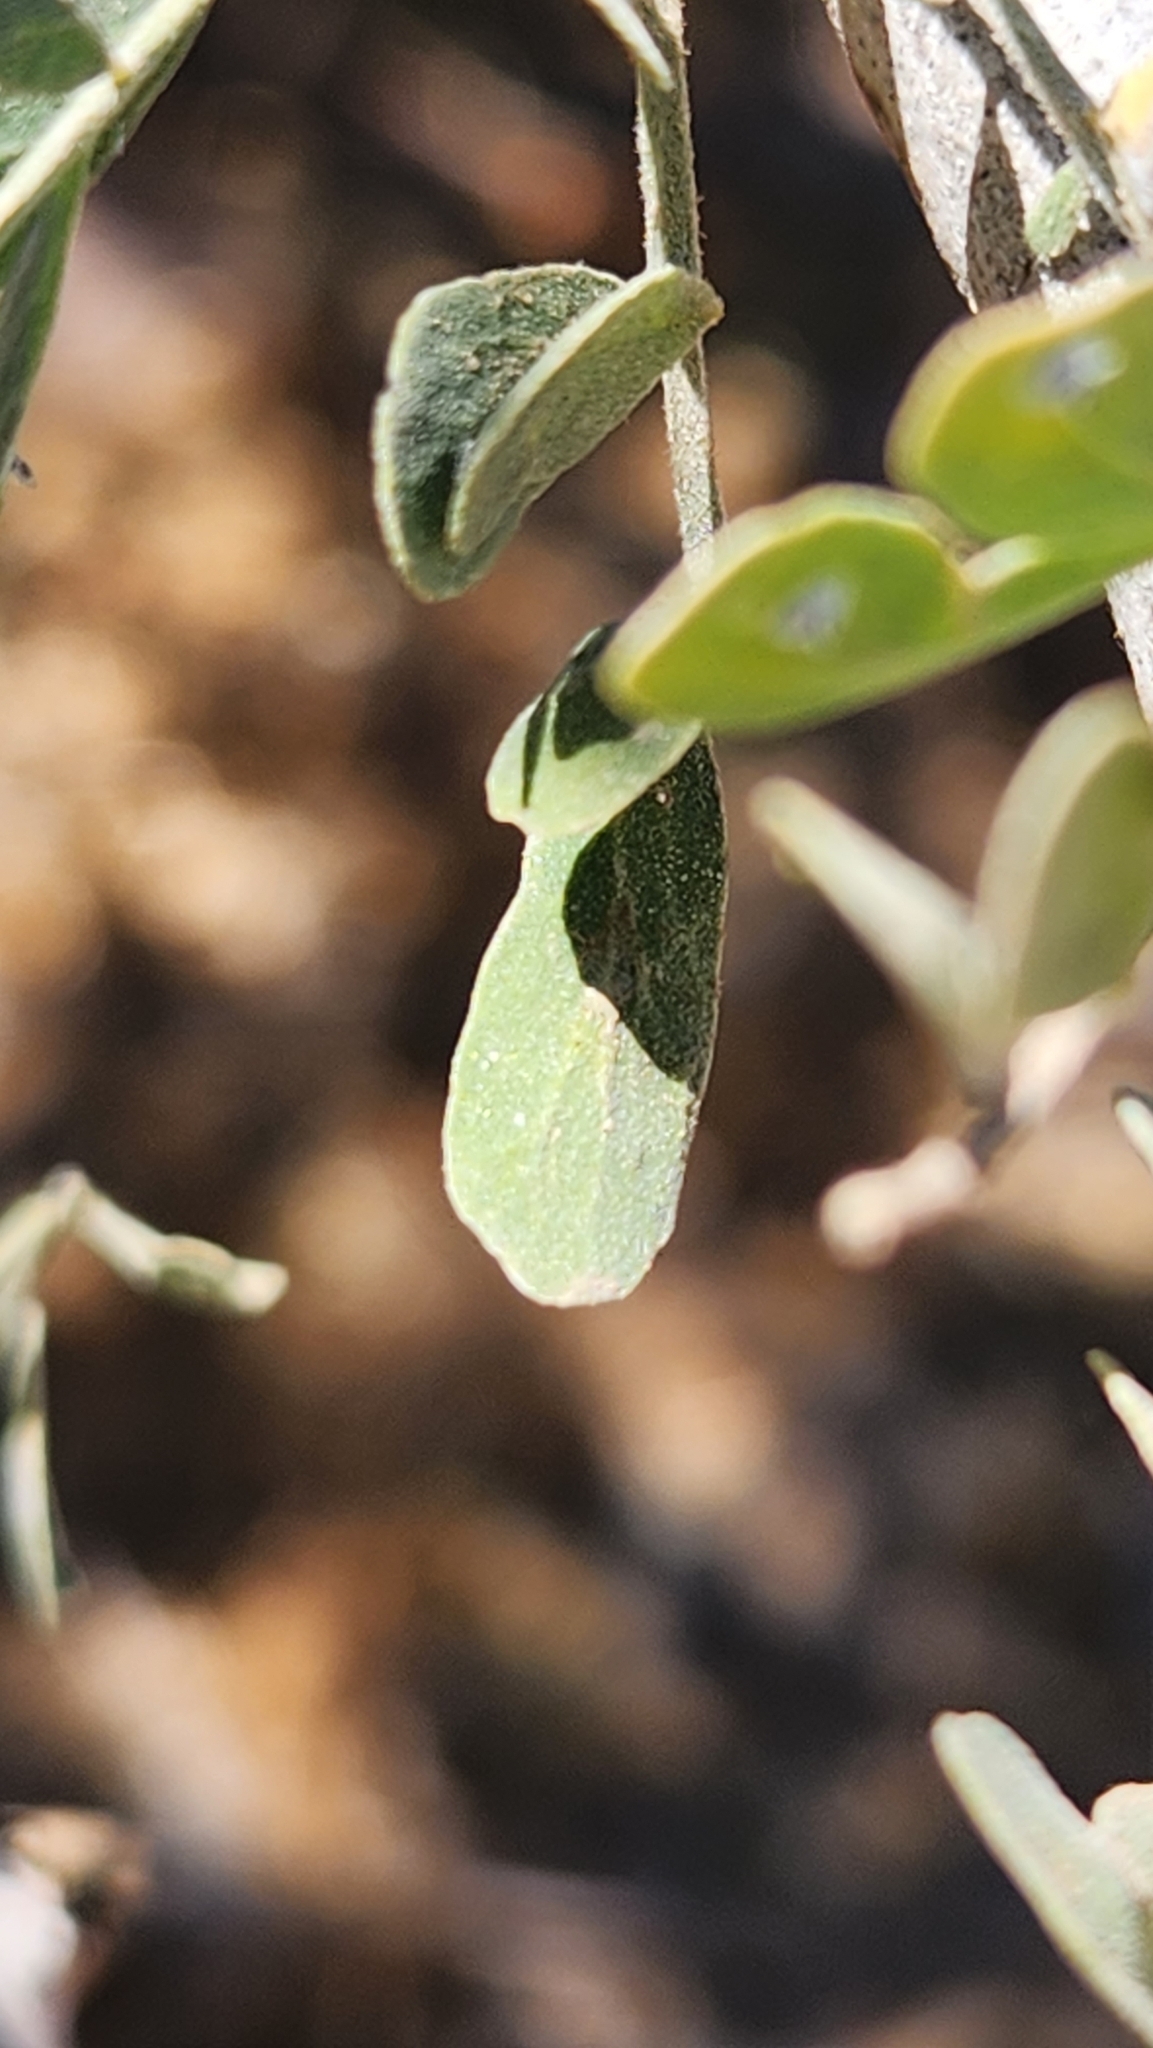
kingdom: Plantae
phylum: Tracheophyta
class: Magnoliopsida
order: Fabales
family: Fabaceae
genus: Olneya
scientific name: Olneya tesota
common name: Desert ironwood
